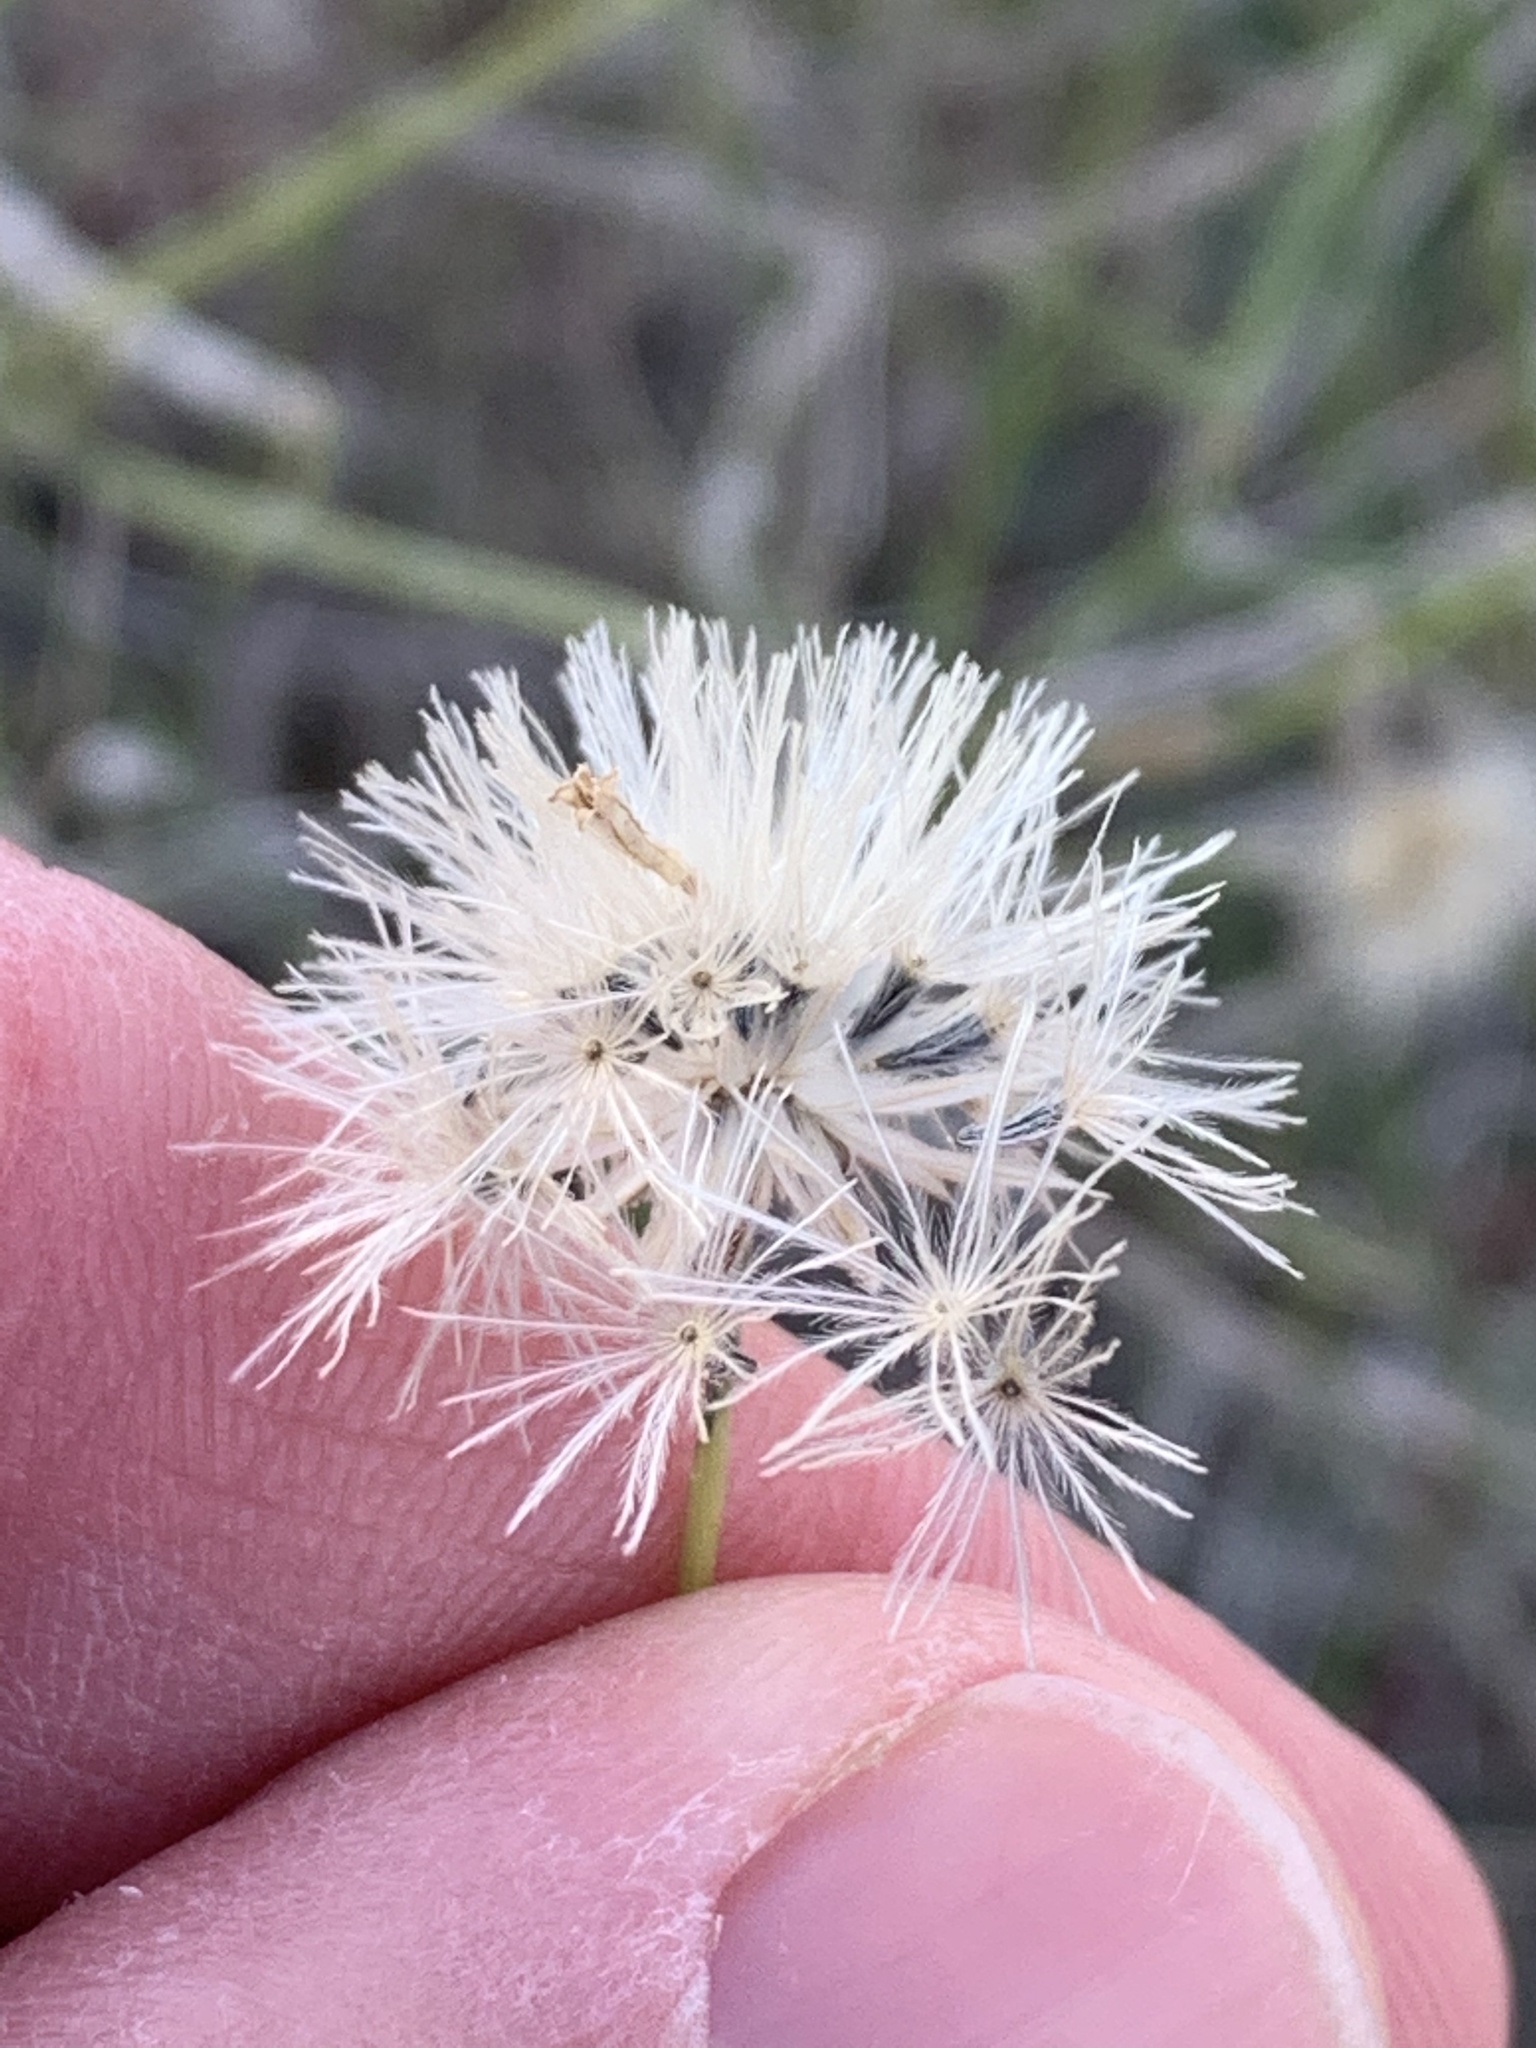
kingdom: Plantae
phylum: Tracheophyta
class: Magnoliopsida
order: Asterales
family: Asteraceae
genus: Bebbia
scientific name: Bebbia juncea
